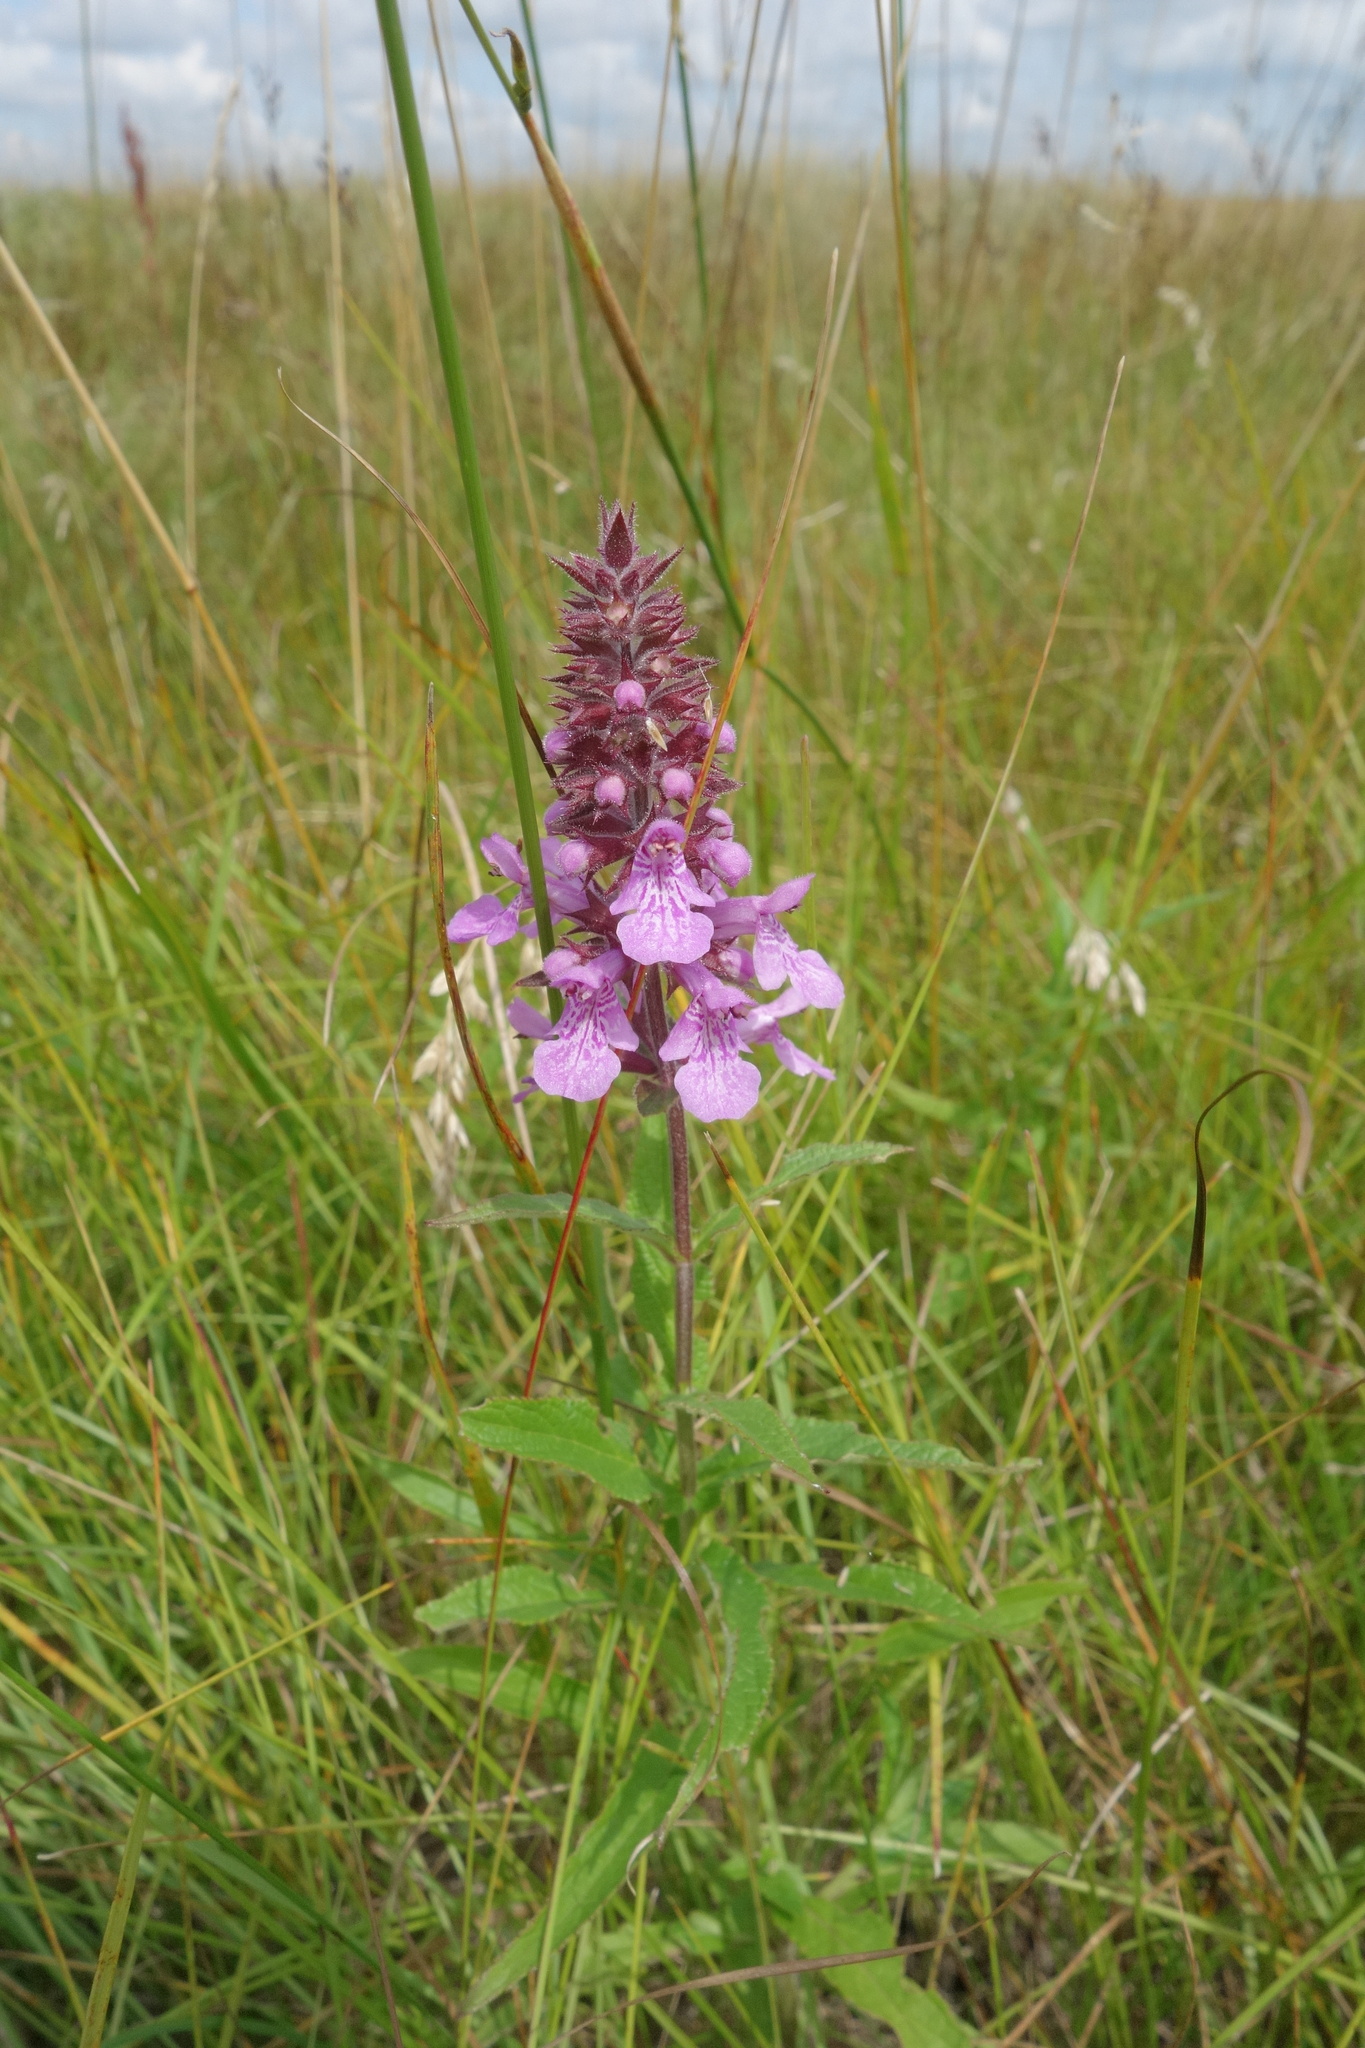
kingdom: Plantae
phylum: Tracheophyta
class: Magnoliopsida
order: Lamiales
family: Lamiaceae
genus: Stachys
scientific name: Stachys palustris
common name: Marsh woundwort
